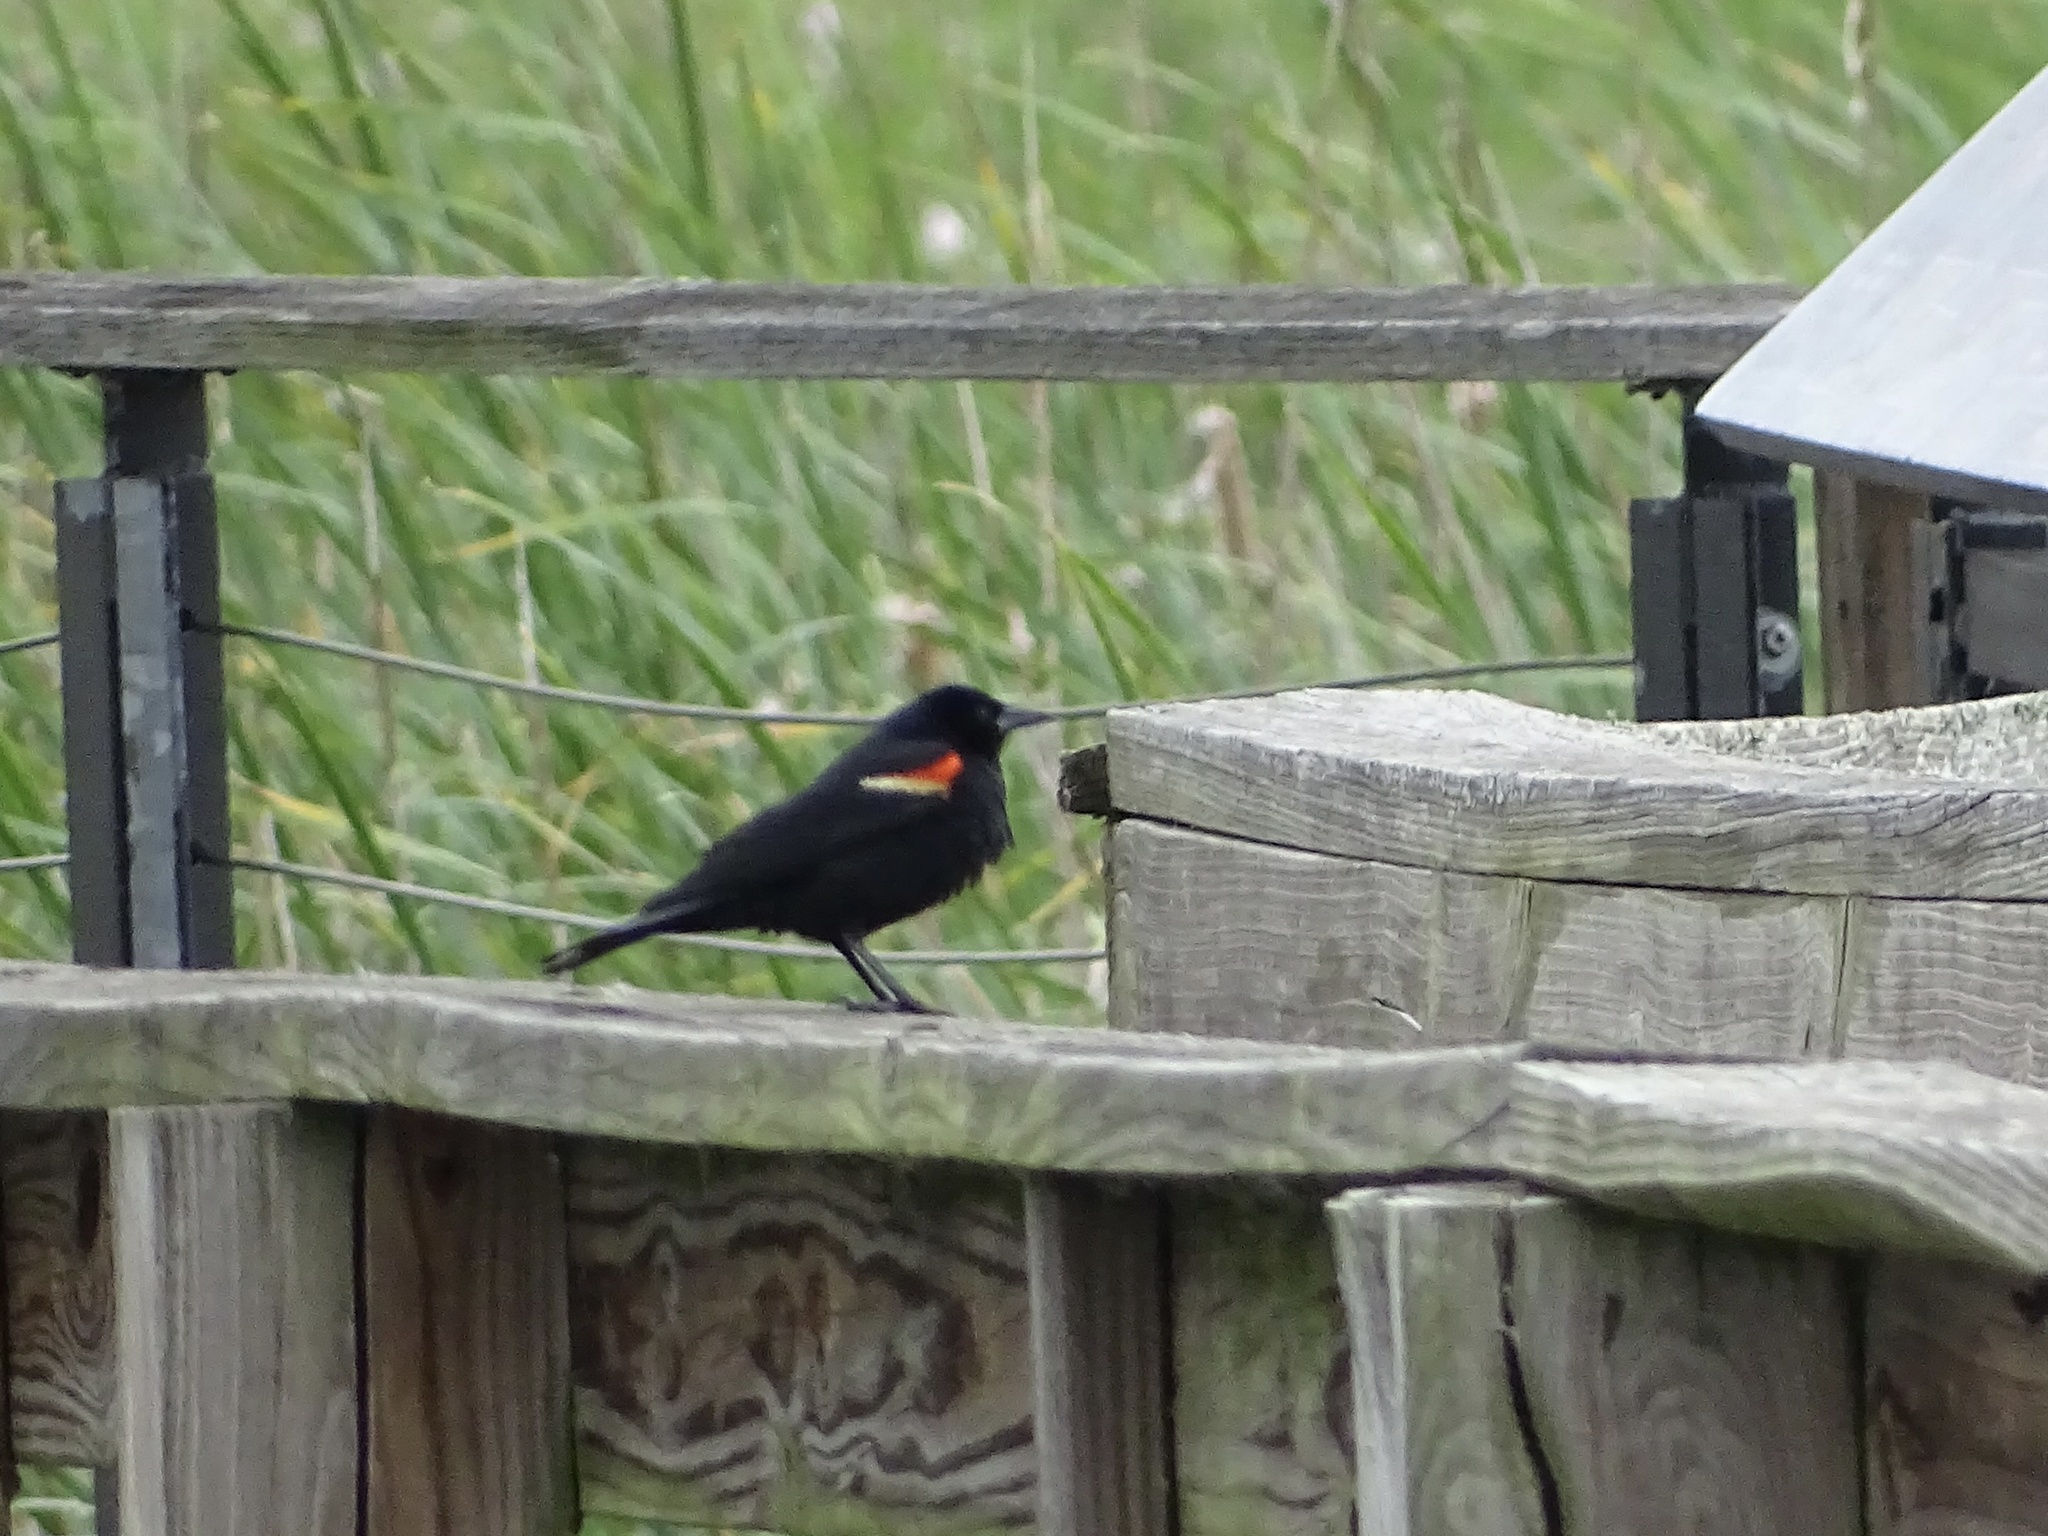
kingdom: Animalia
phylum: Chordata
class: Aves
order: Passeriformes
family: Icteridae
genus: Agelaius
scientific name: Agelaius phoeniceus
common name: Red-winged blackbird
